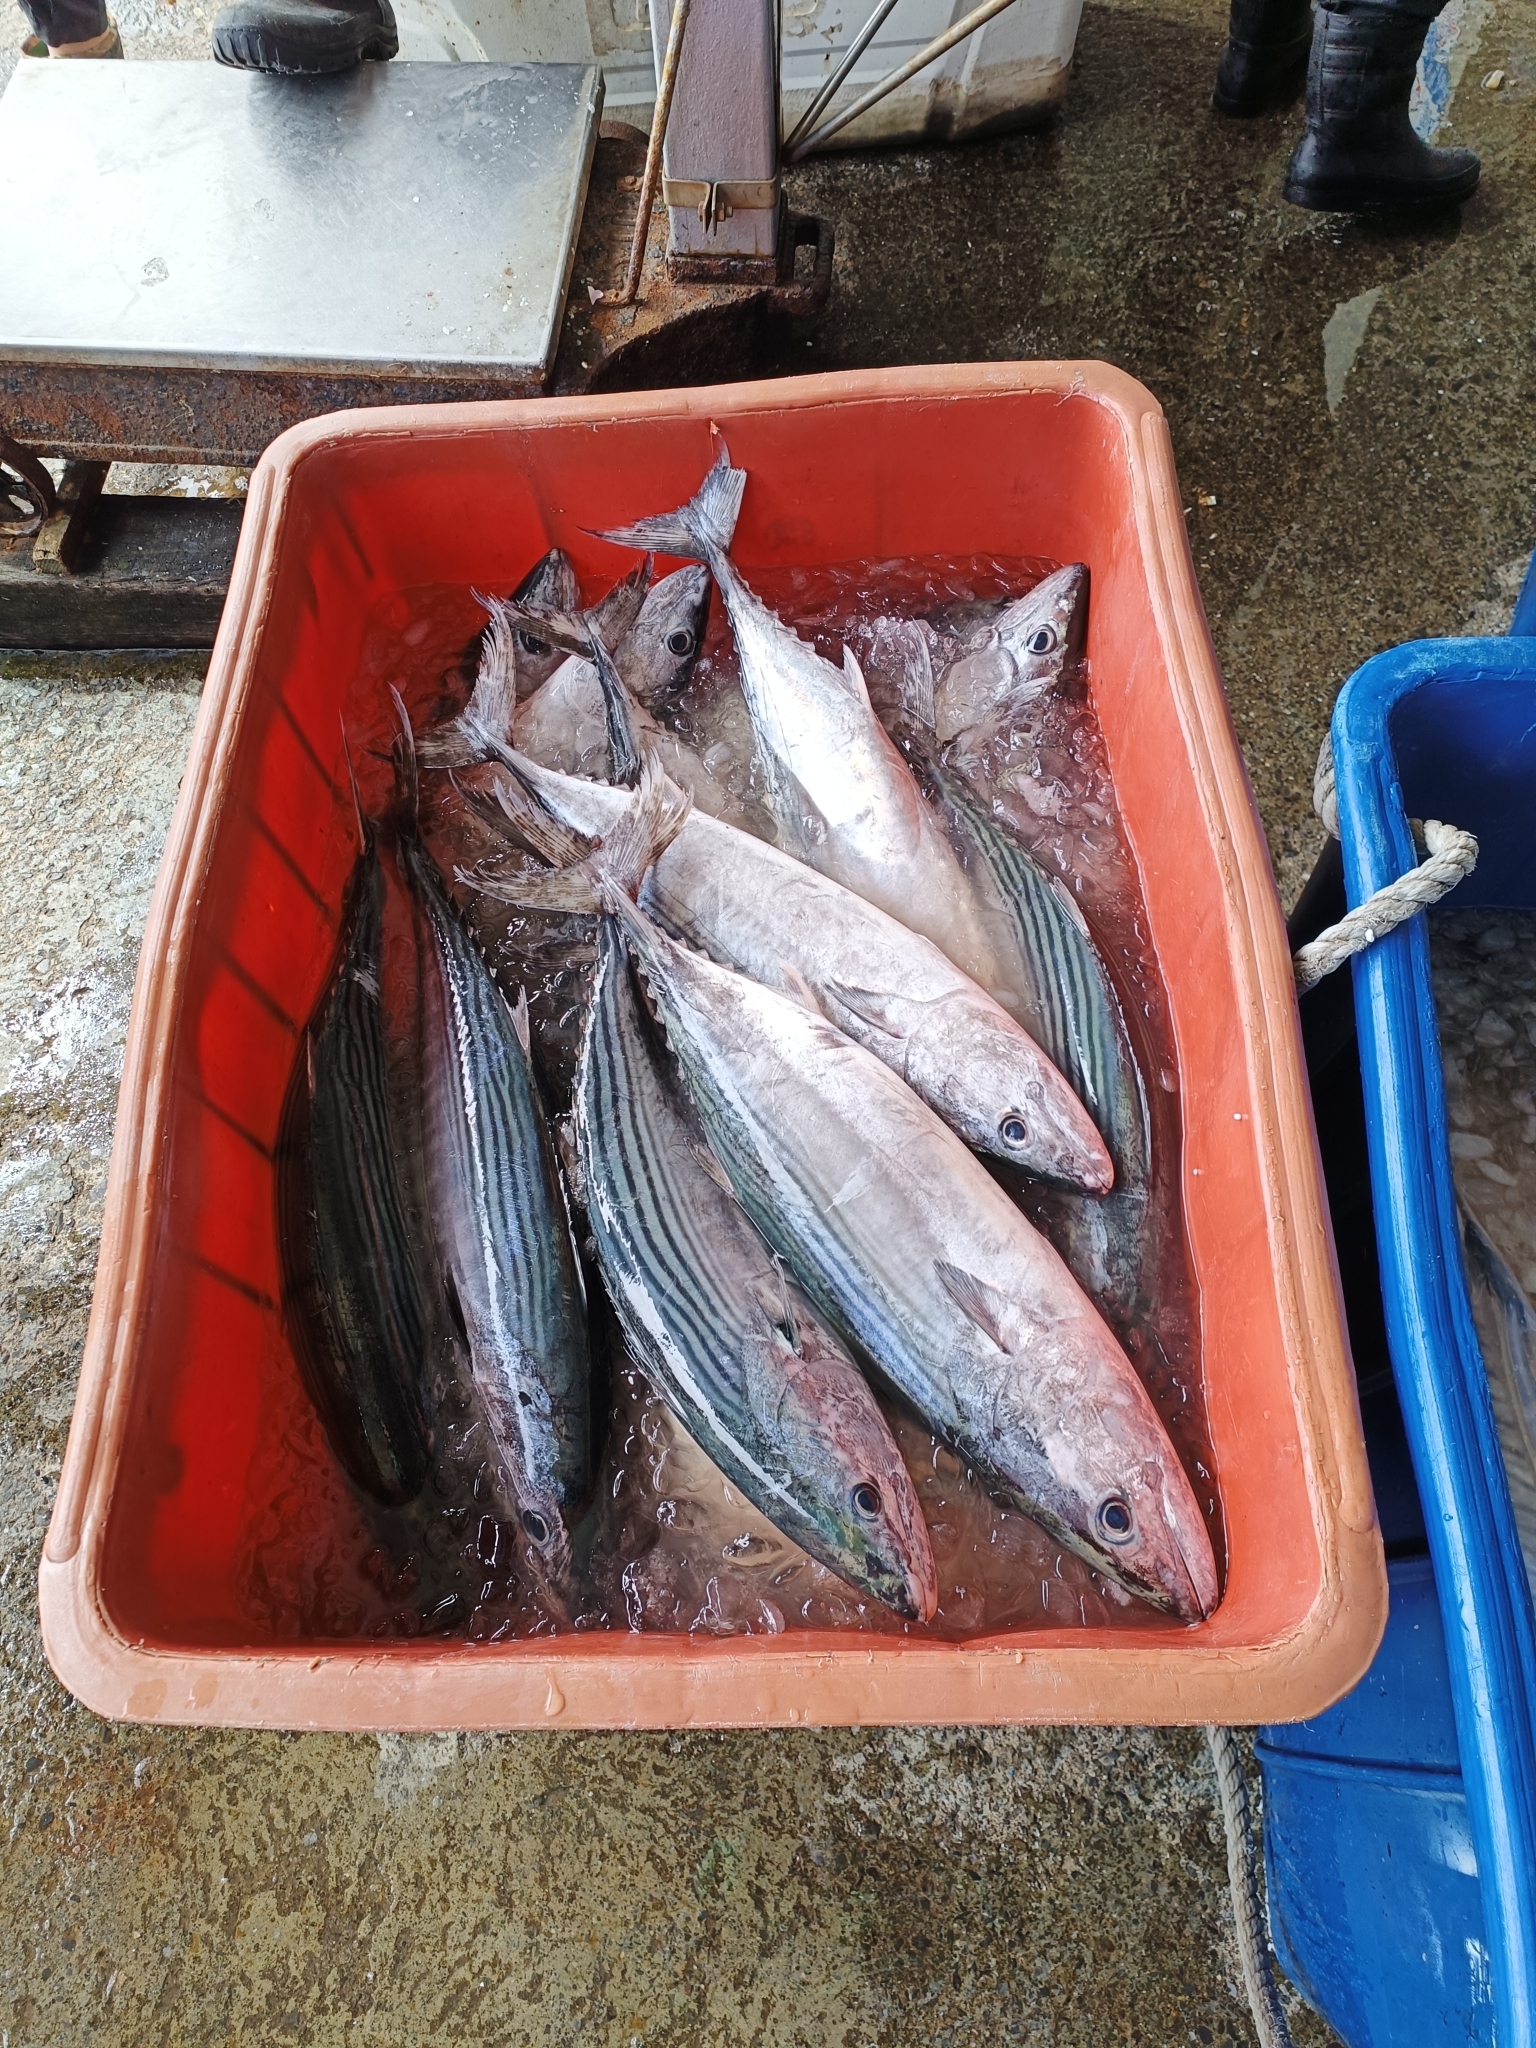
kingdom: Animalia
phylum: Chordata
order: Perciformes
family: Scombridae
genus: Sarda
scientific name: Sarda orientalis
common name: Striped bonito
